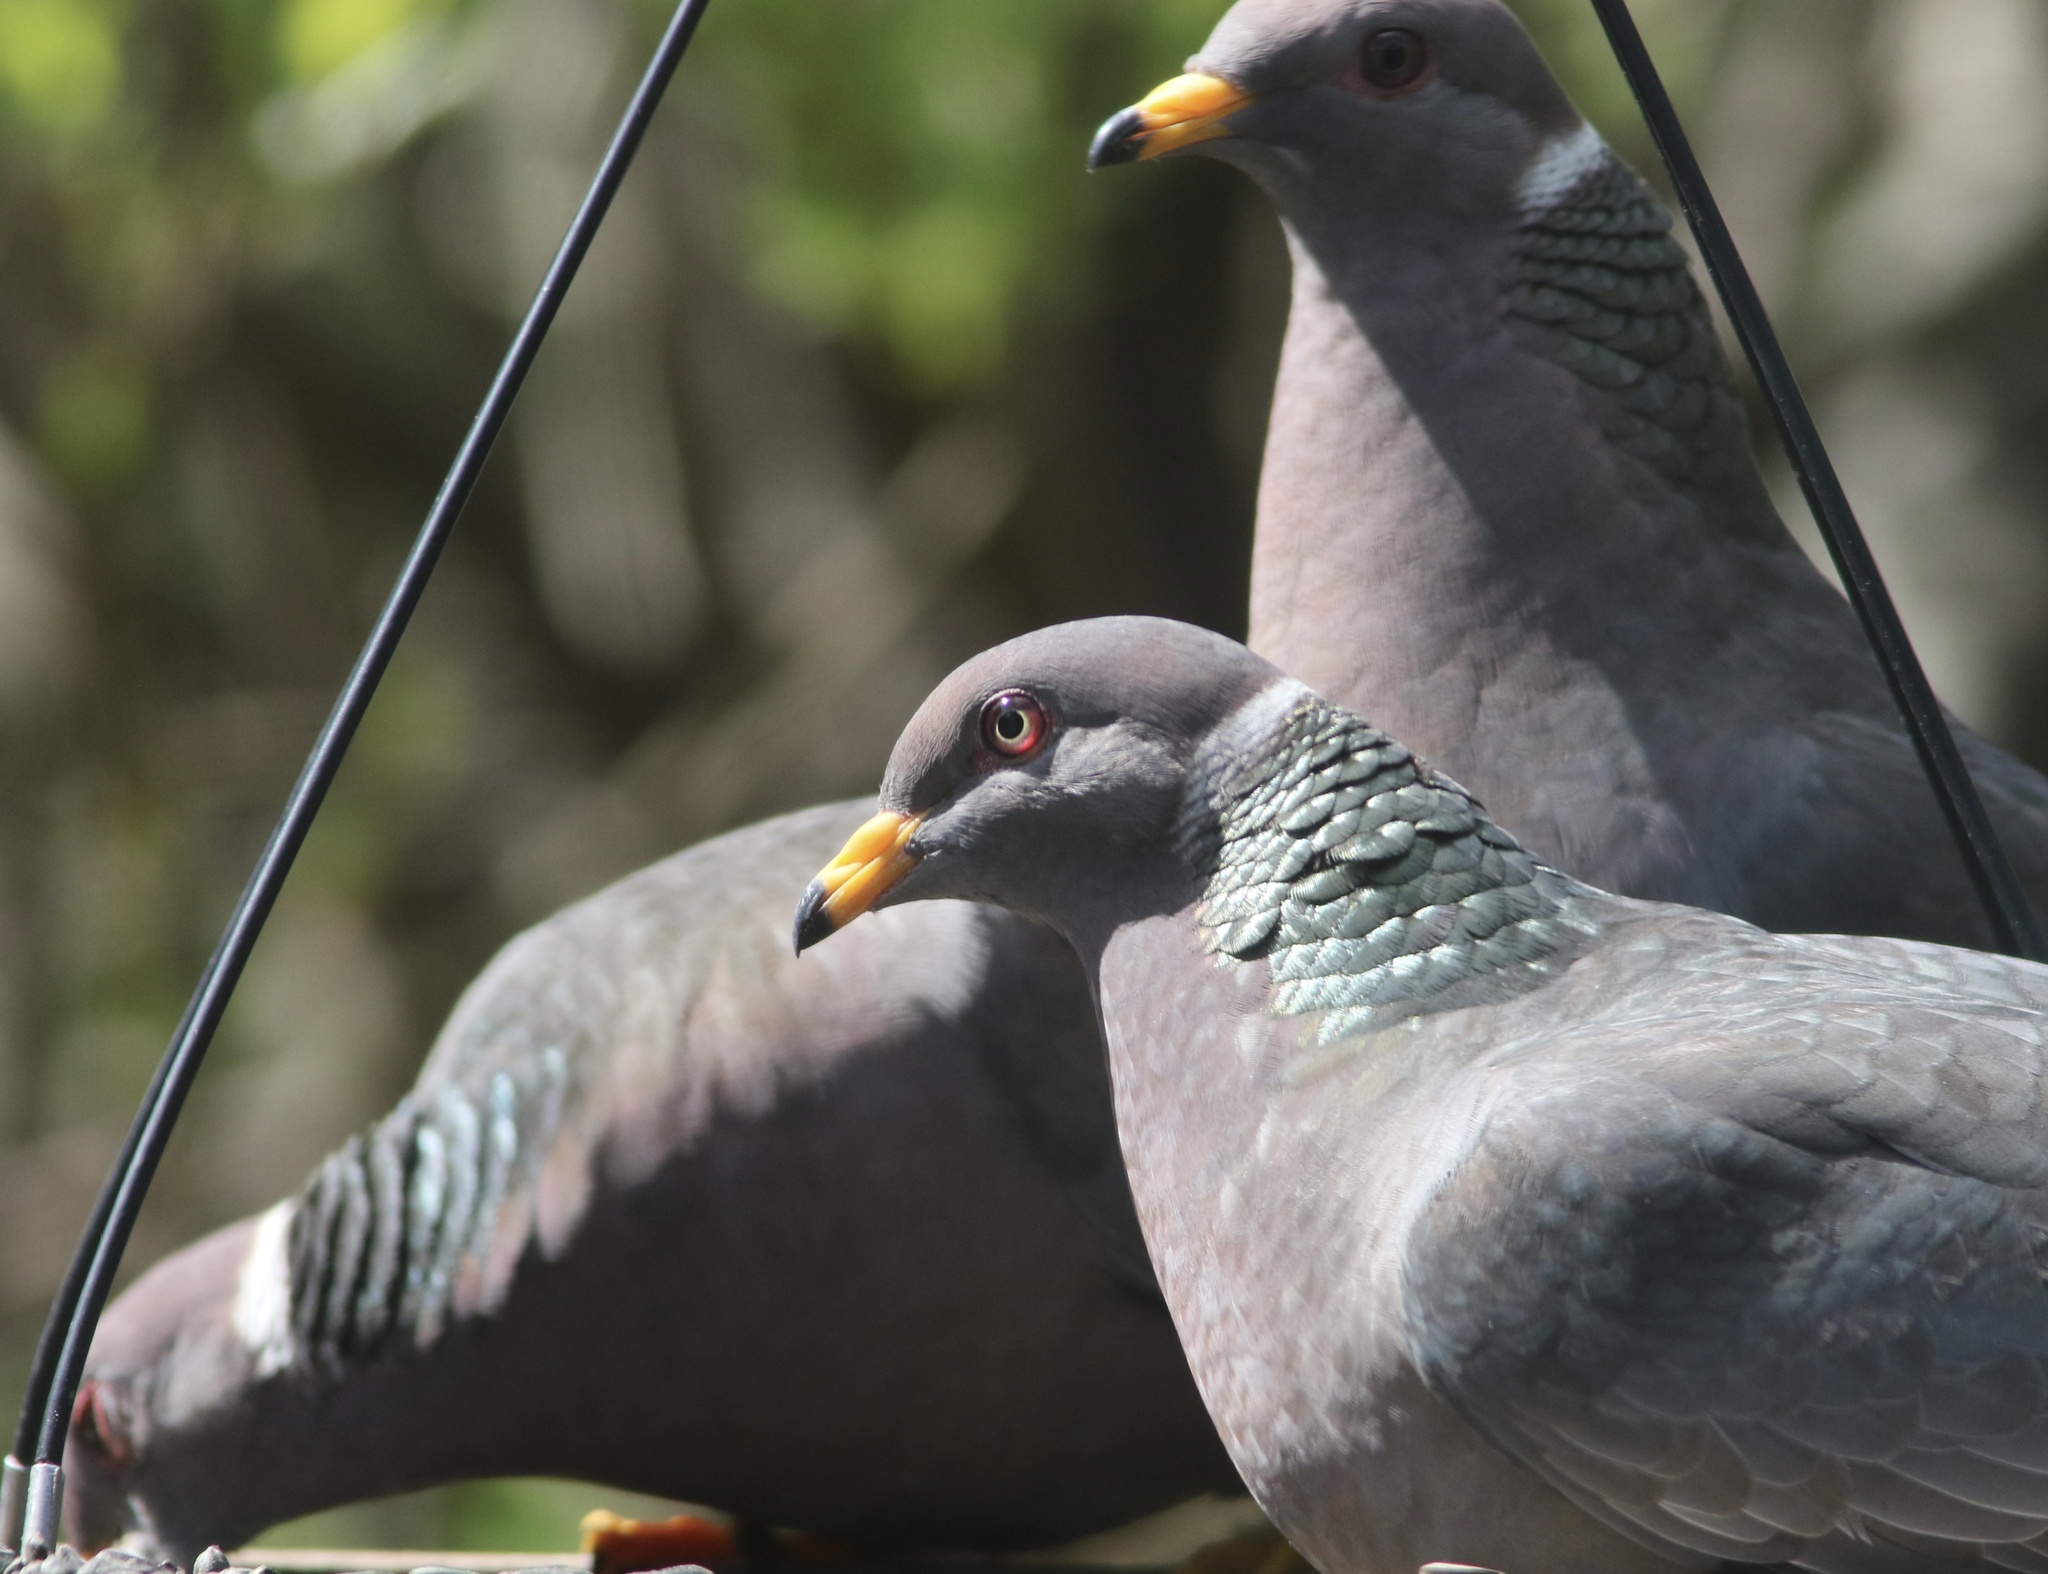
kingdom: Animalia
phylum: Chordata
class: Aves
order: Columbiformes
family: Columbidae
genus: Patagioenas
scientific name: Patagioenas fasciata
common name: Band-tailed pigeon
